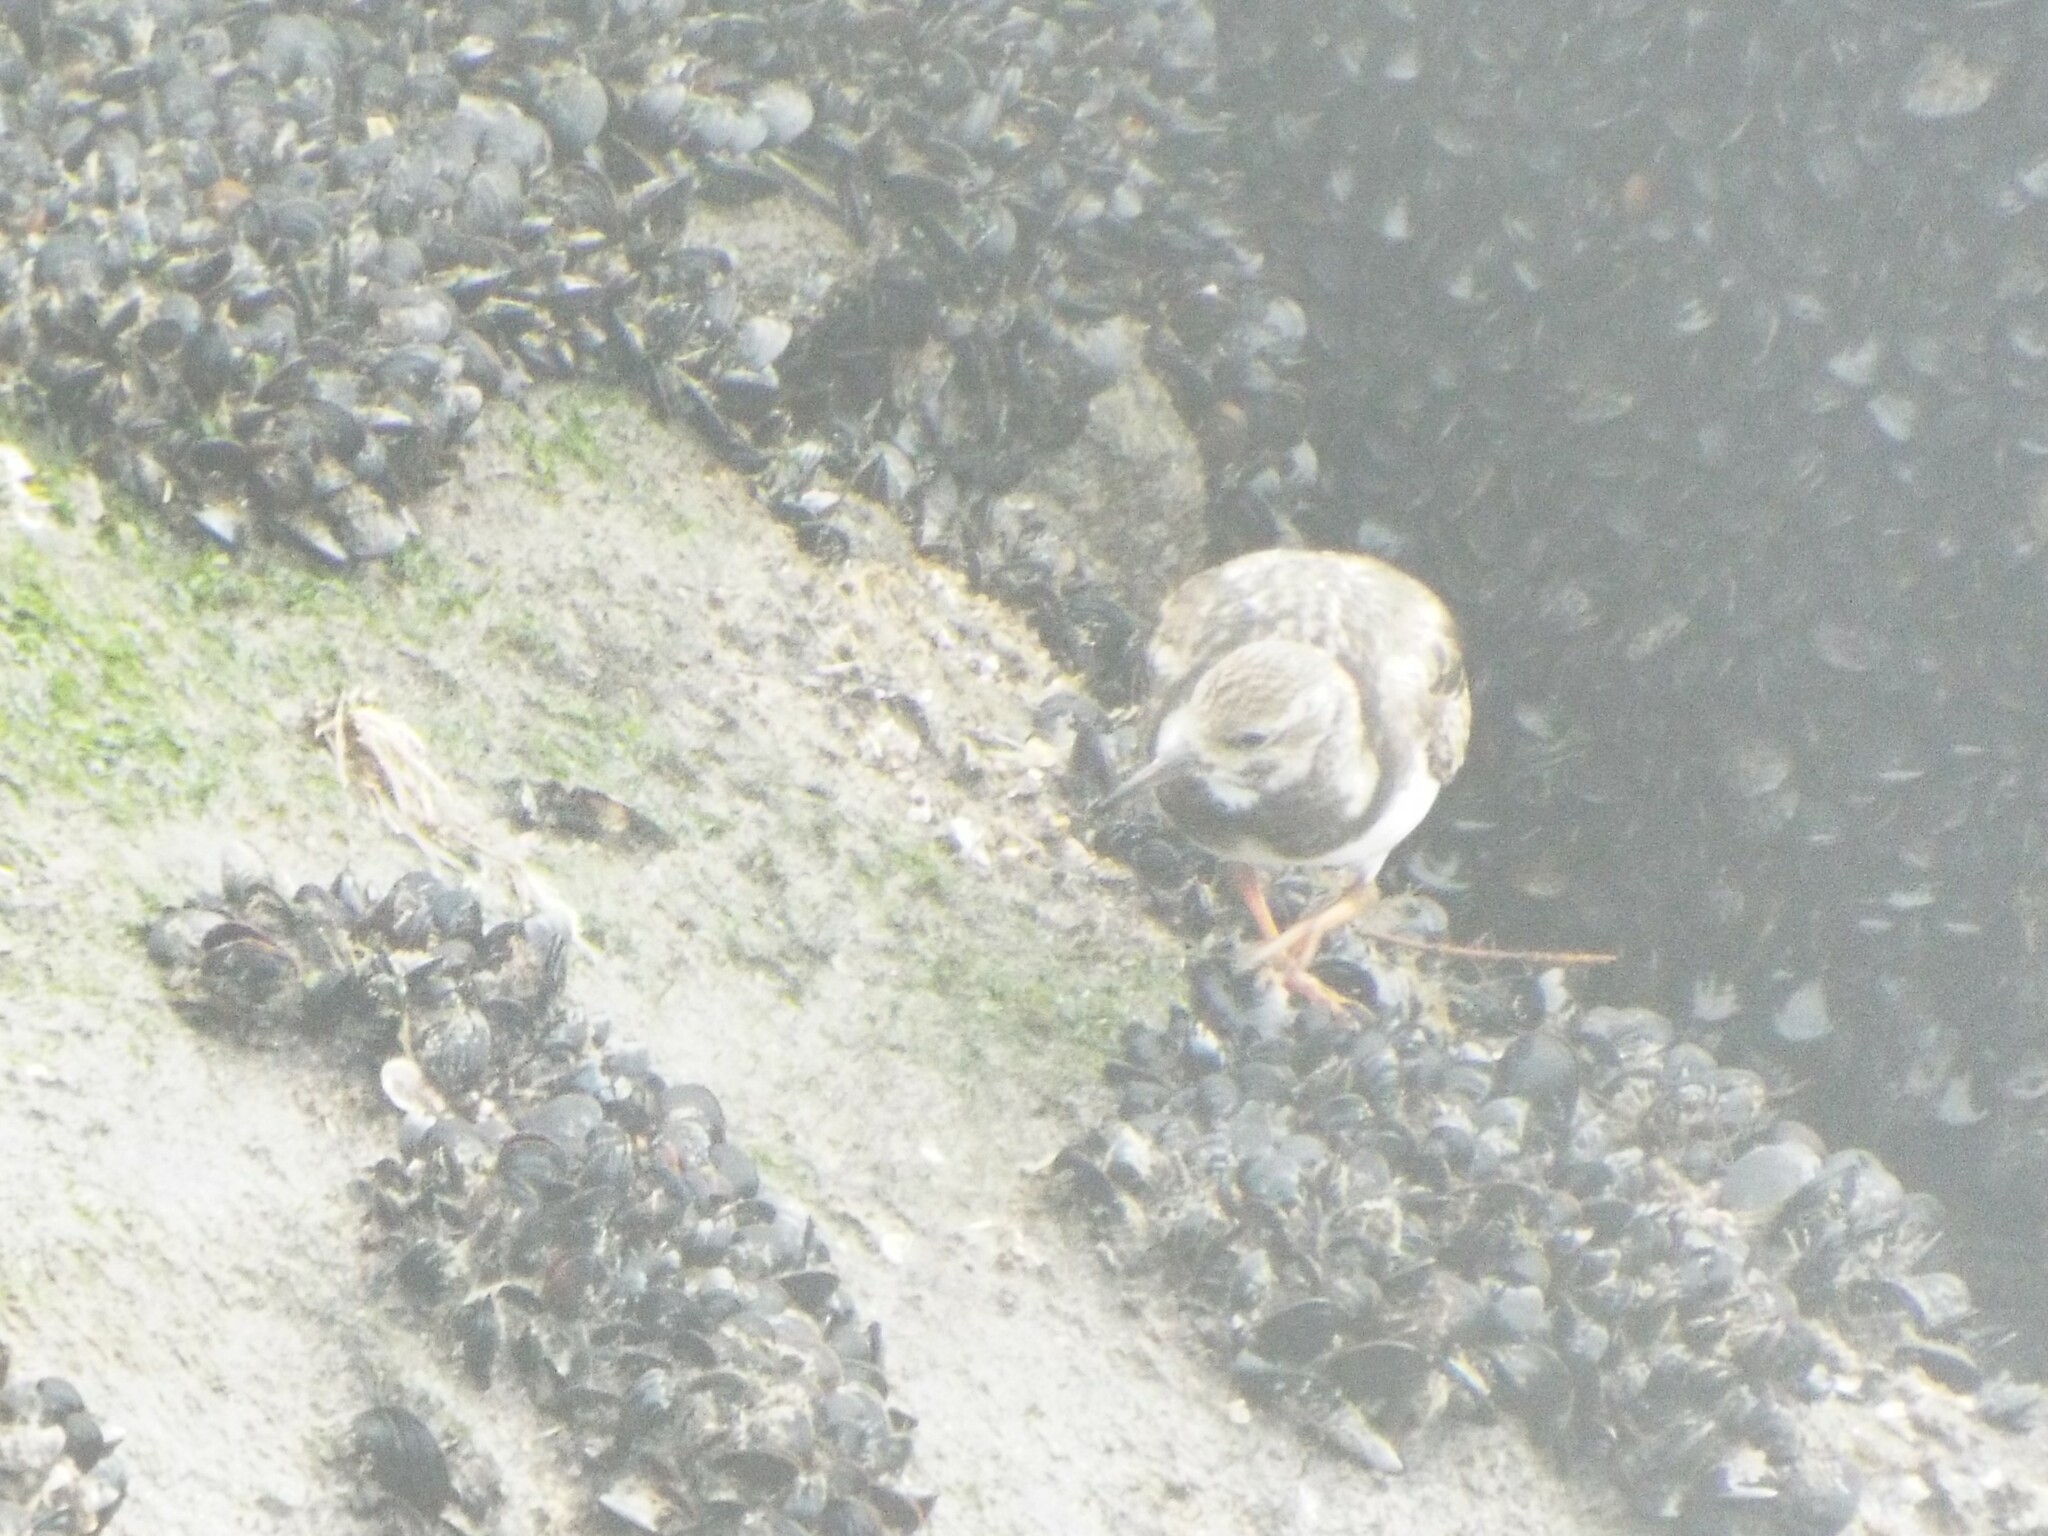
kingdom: Animalia
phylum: Chordata
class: Aves
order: Charadriiformes
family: Scolopacidae
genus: Arenaria
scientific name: Arenaria interpres
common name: Ruddy turnstone
